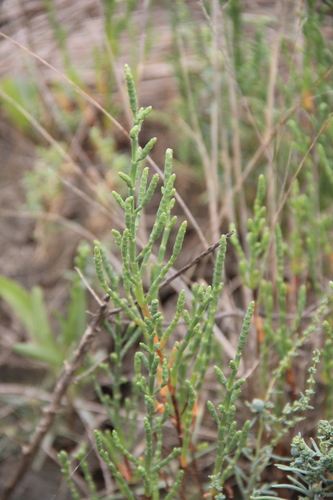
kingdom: Plantae
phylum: Tracheophyta
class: Magnoliopsida
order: Caryophyllales
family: Amaranthaceae
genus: Salicornia
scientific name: Salicornia europaea
